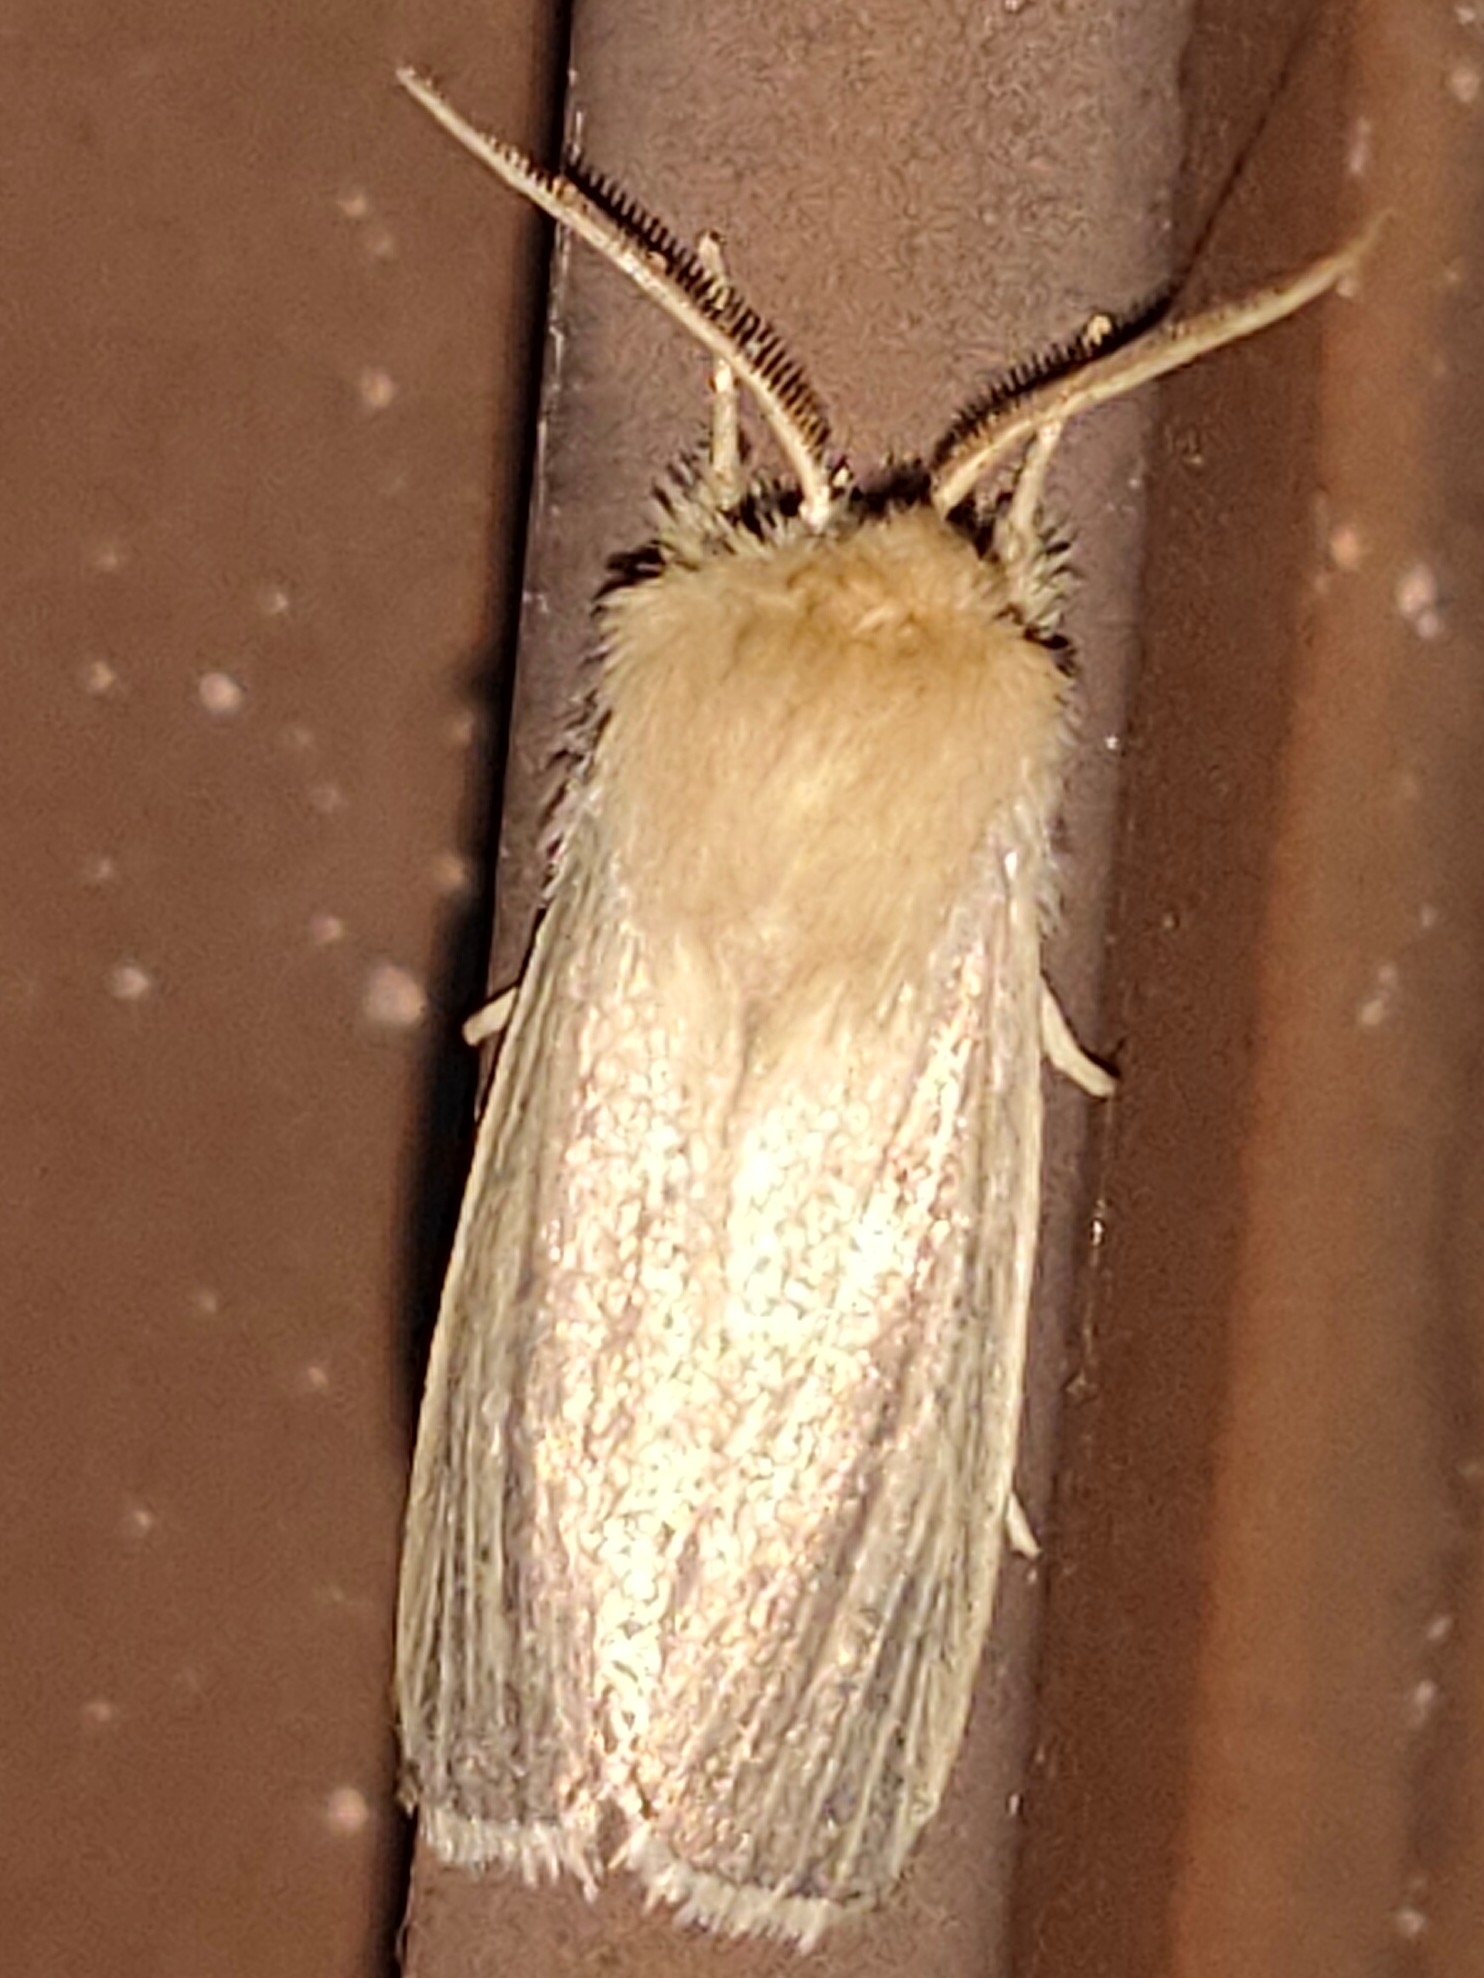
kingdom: Animalia
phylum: Arthropoda
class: Insecta
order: Lepidoptera
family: Noctuidae
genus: Sesamia
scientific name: Sesamia inferens
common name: Noctuid moth
